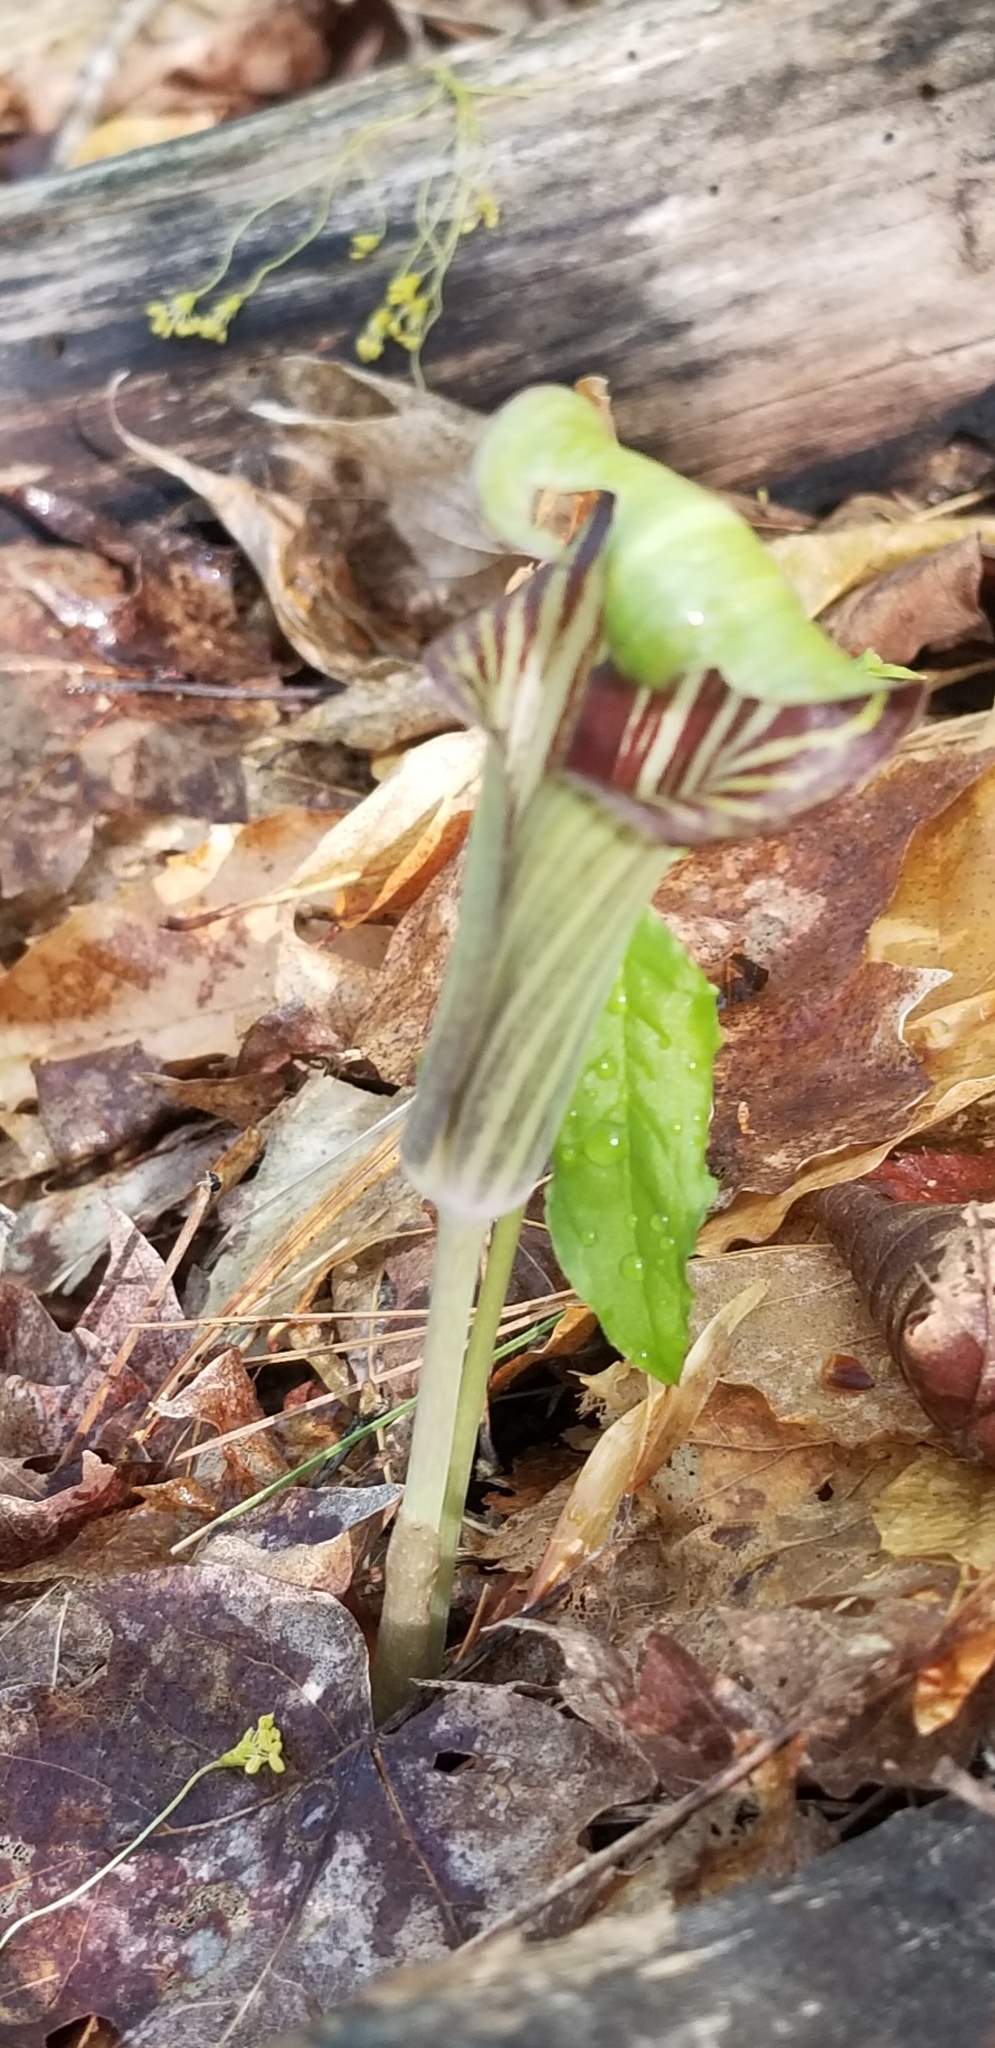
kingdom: Plantae
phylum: Tracheophyta
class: Liliopsida
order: Alismatales
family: Araceae
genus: Arisaema
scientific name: Arisaema triphyllum
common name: Jack-in-the-pulpit
